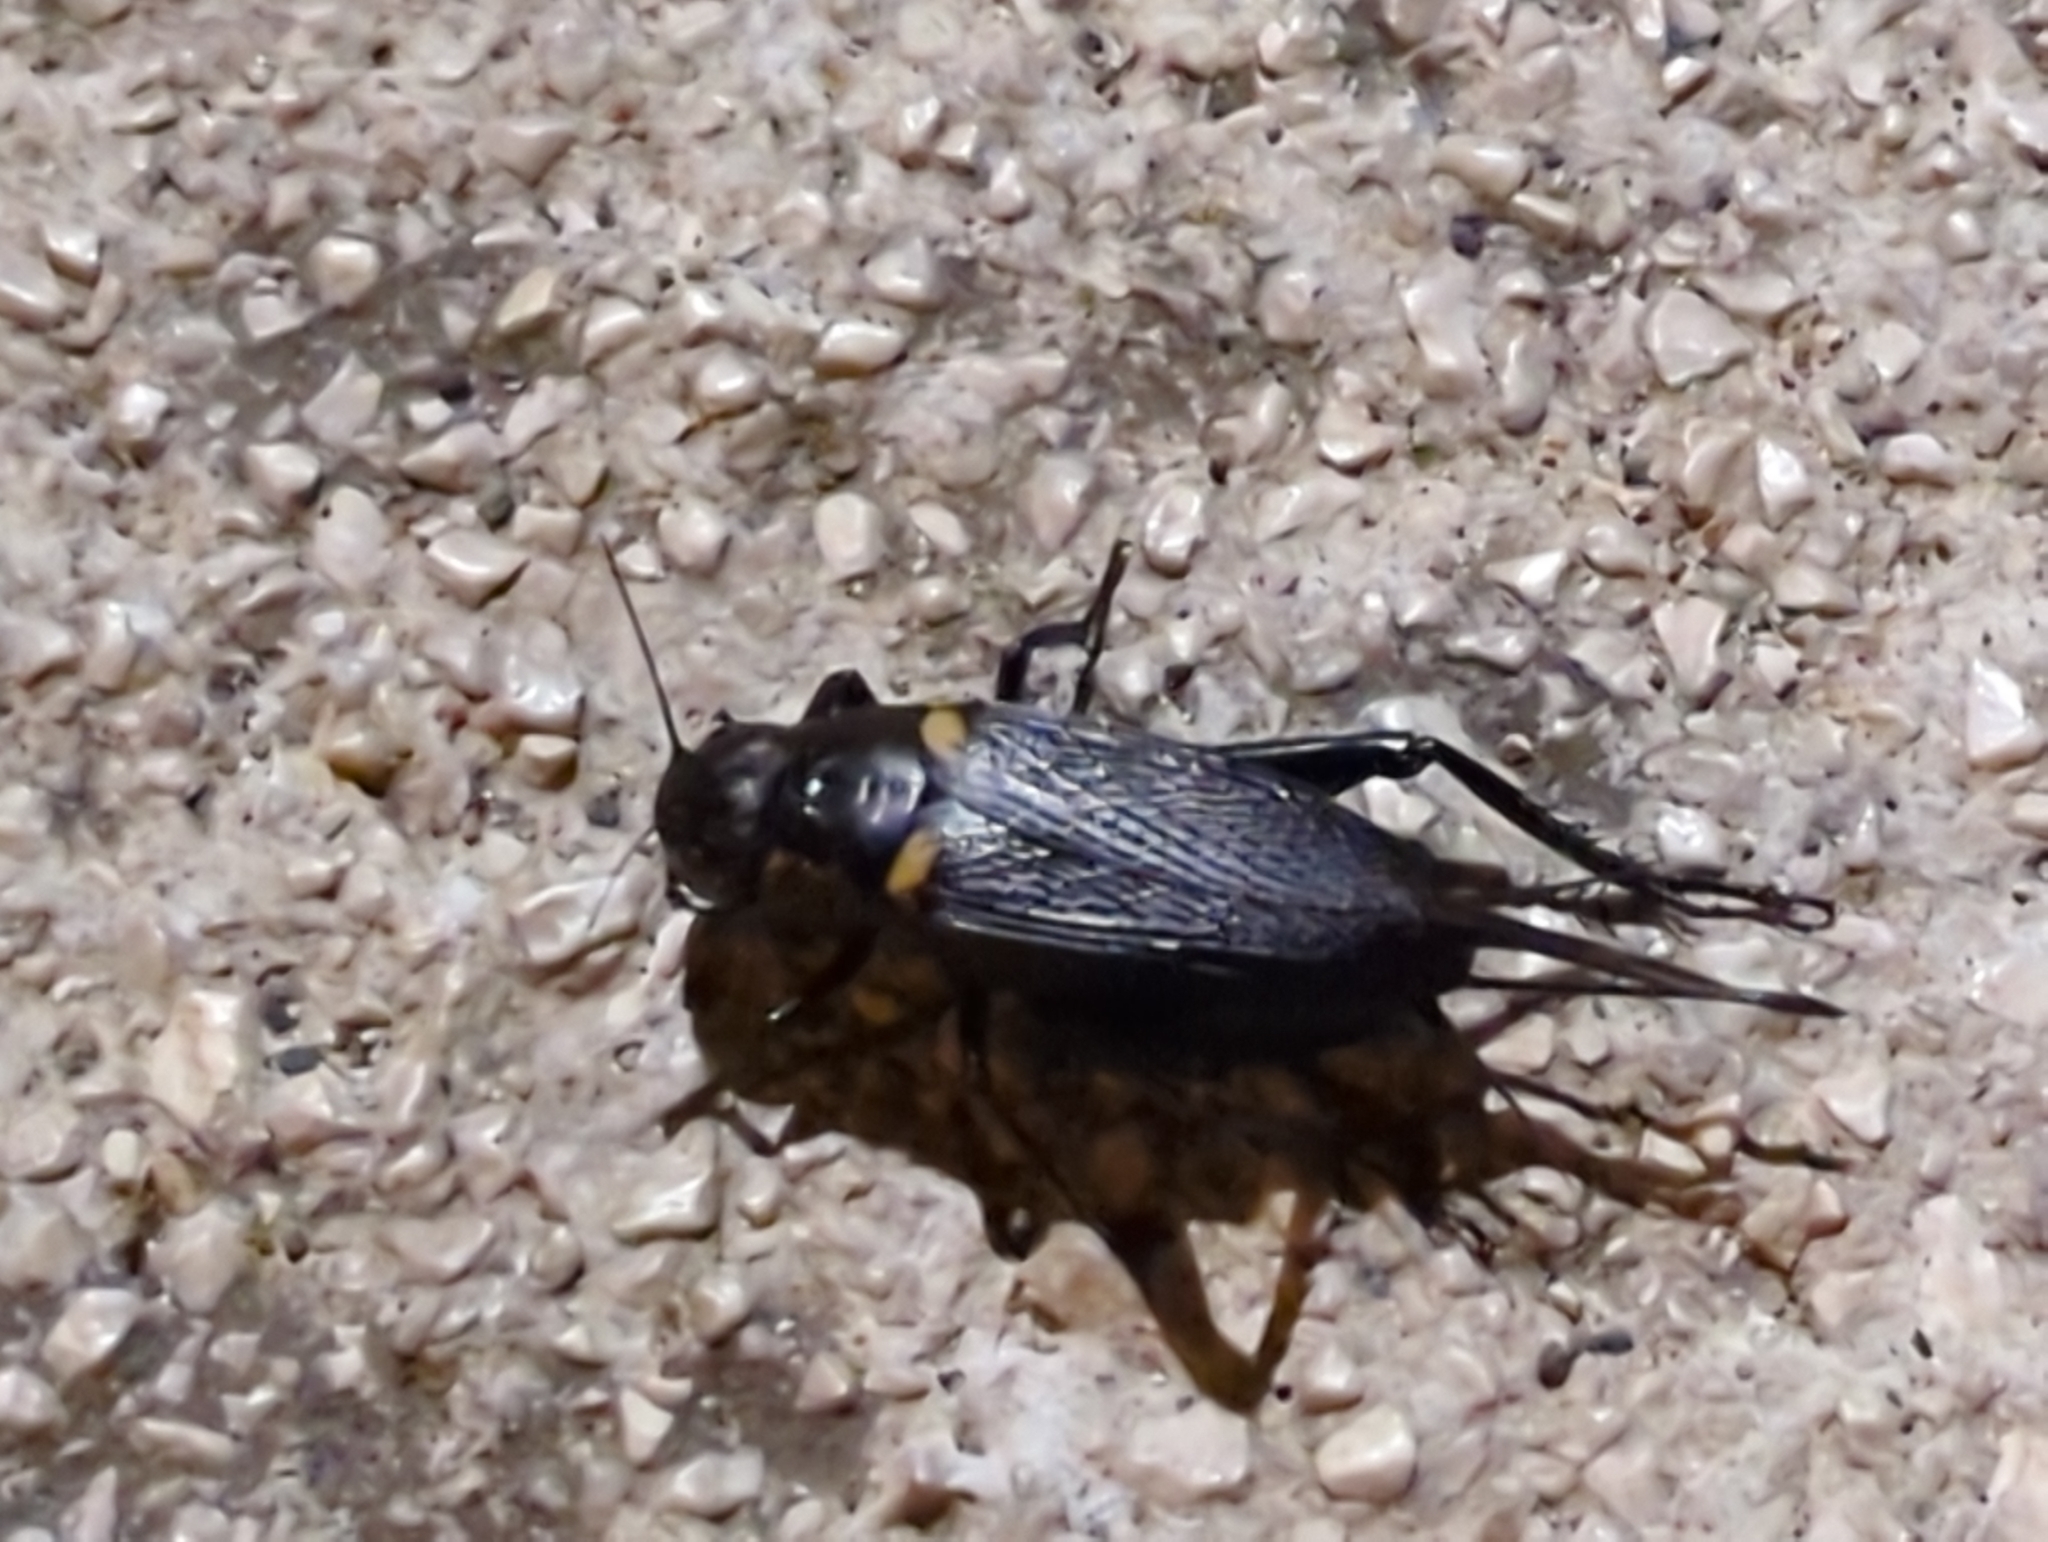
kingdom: Animalia
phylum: Arthropoda
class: Insecta
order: Orthoptera
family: Gryllidae
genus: Gryllus
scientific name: Gryllus bimaculatus
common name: Two-spotted cricket
